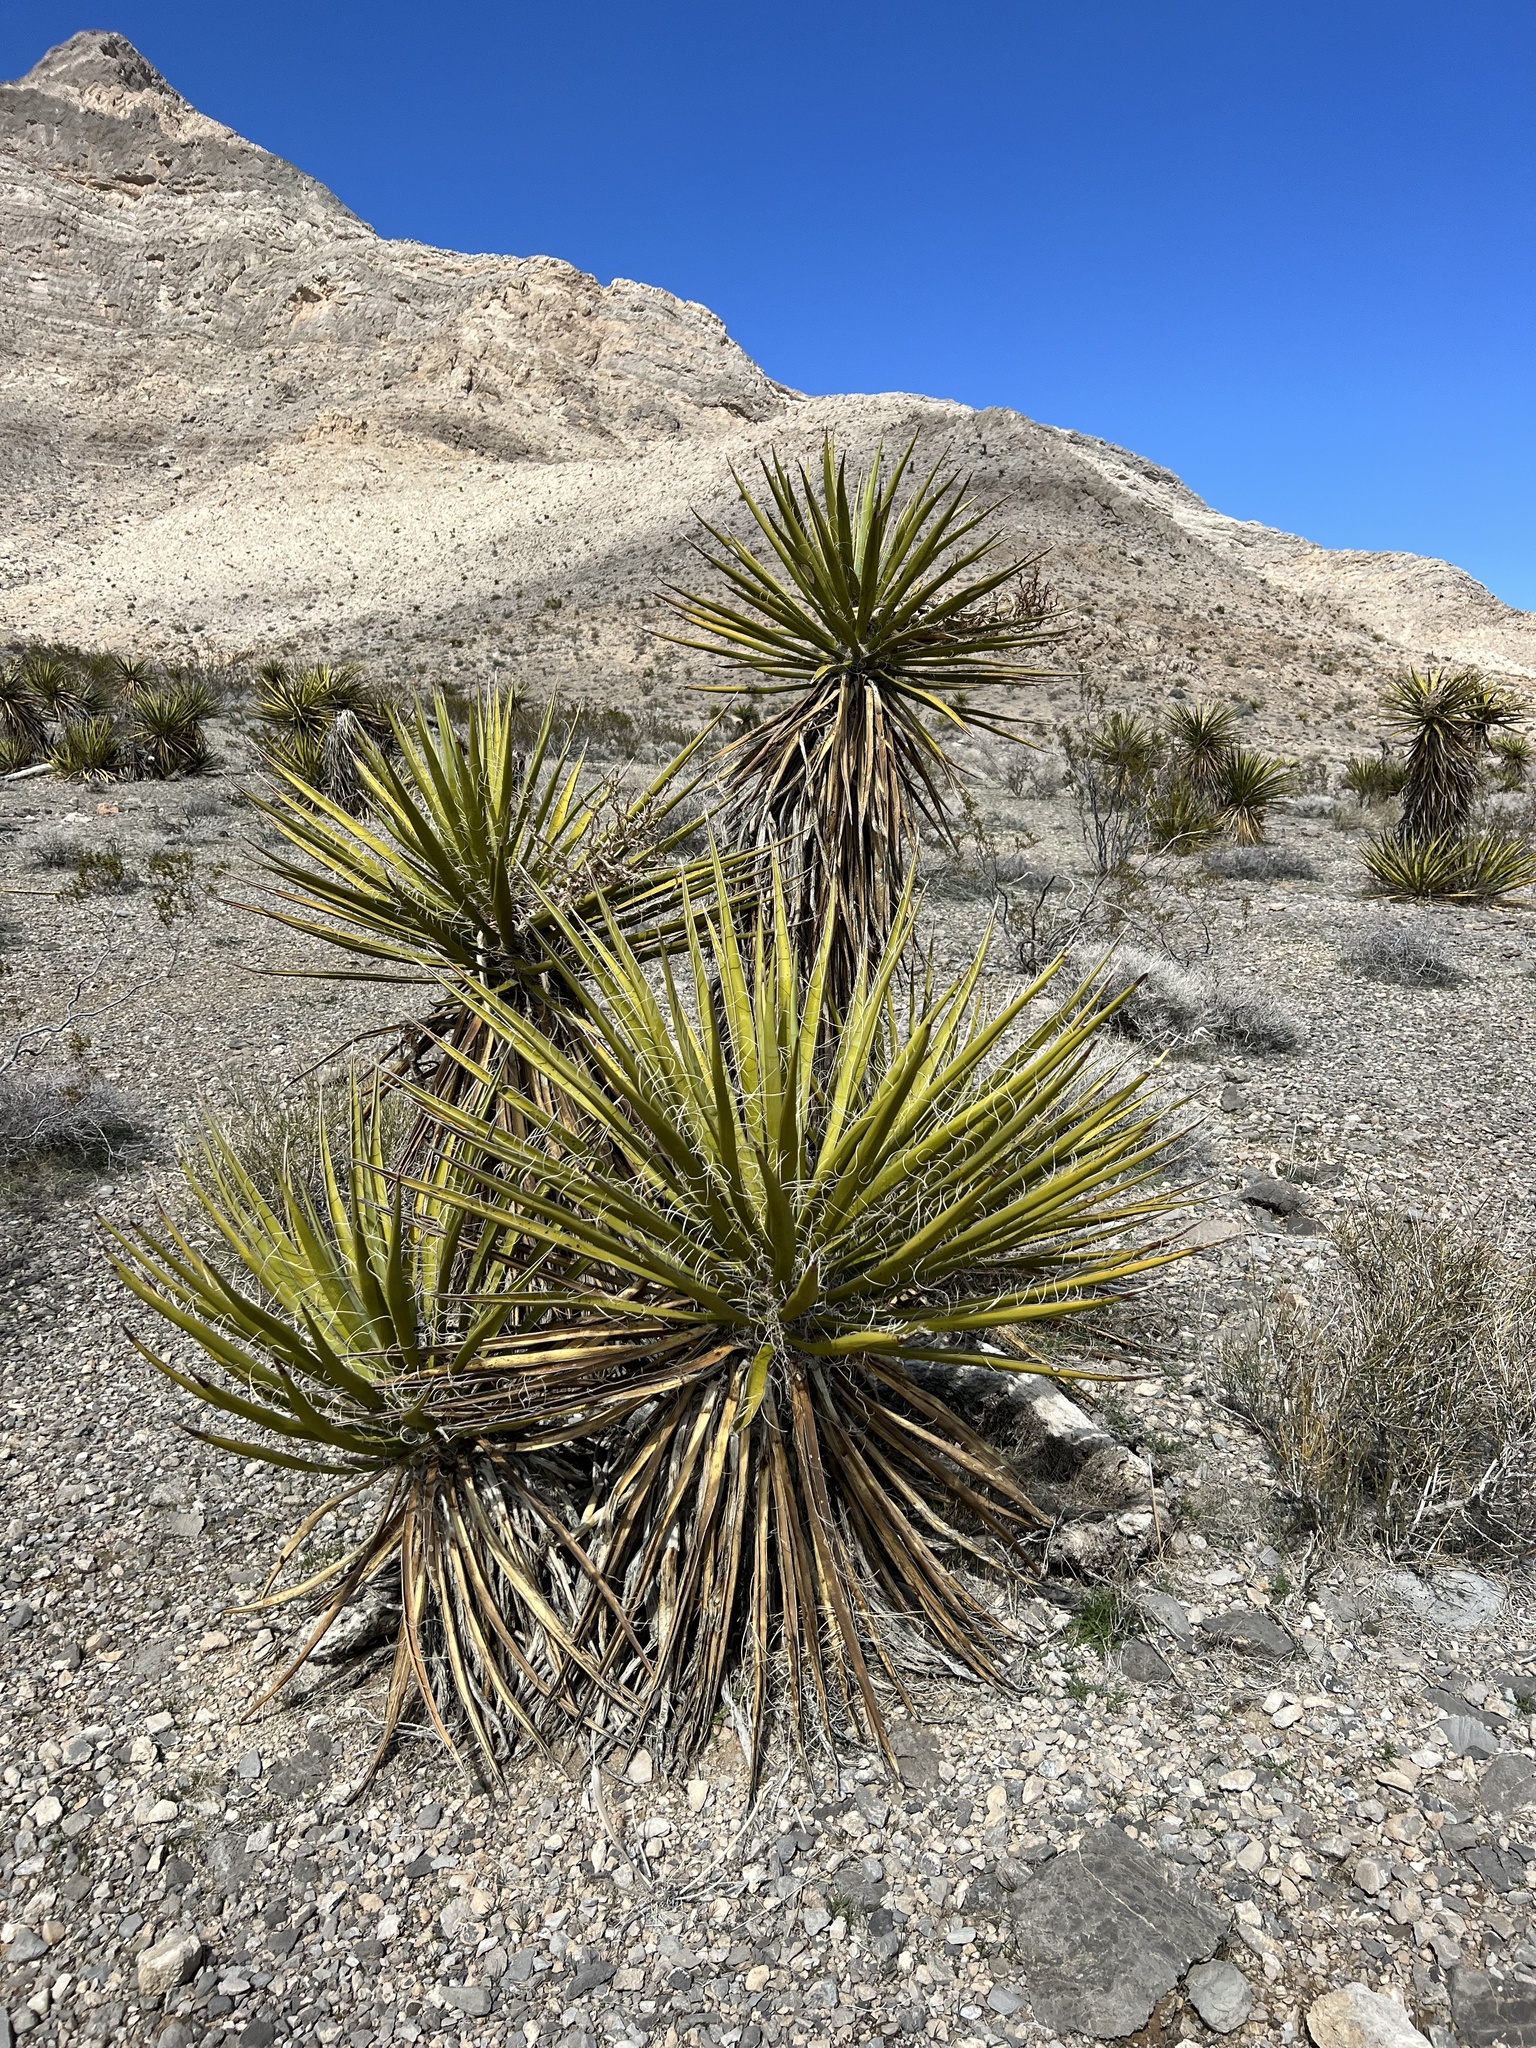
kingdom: Plantae
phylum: Tracheophyta
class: Liliopsida
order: Asparagales
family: Asparagaceae
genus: Yucca
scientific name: Yucca schidigera
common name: Mojave yucca
